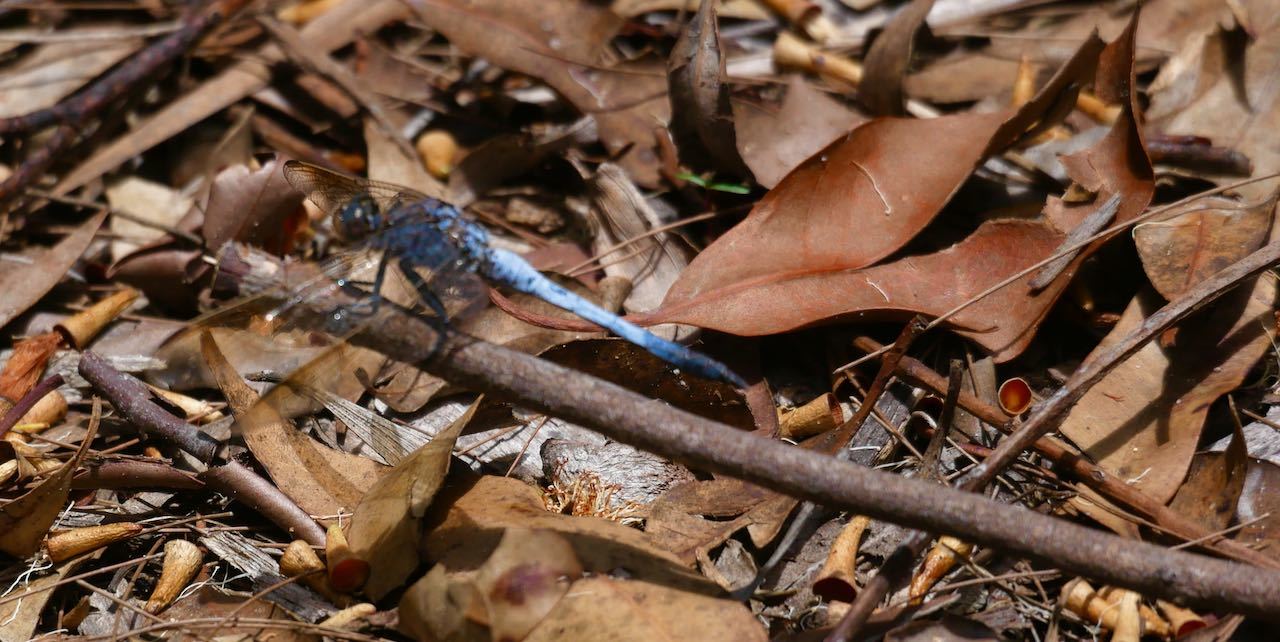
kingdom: Animalia
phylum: Arthropoda
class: Insecta
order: Odonata
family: Libellulidae
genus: Orthetrum
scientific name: Orthetrum caledonicum
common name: Blue skimmer
